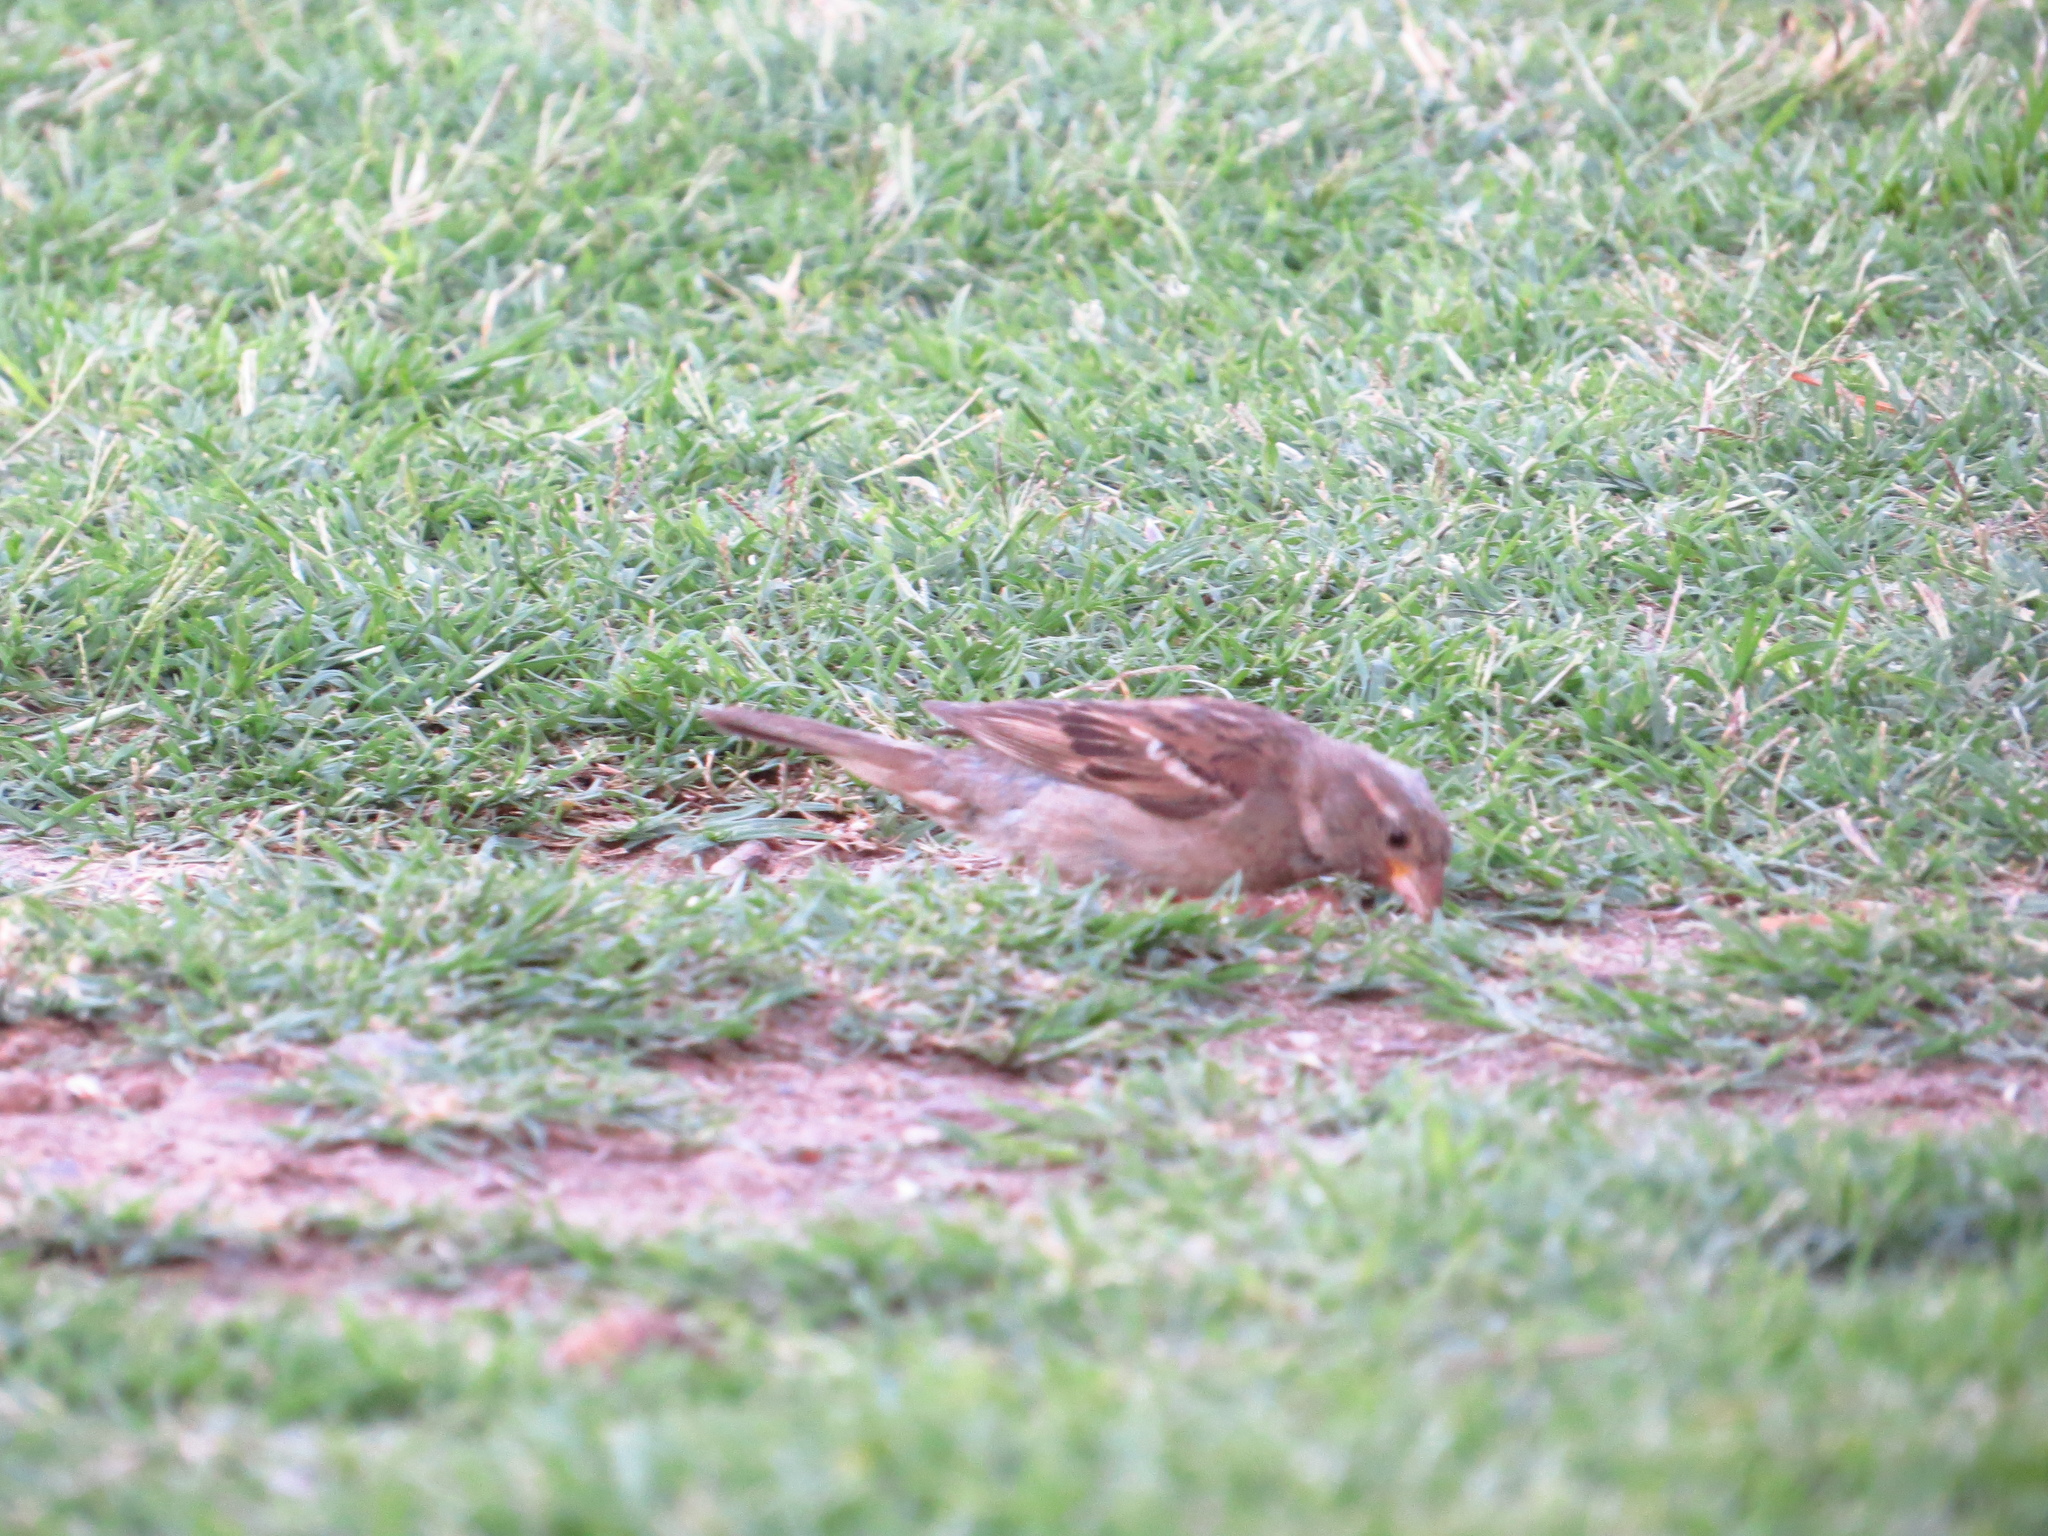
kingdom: Animalia
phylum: Chordata
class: Aves
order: Passeriformes
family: Passeridae
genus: Passer
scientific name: Passer domesticus
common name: House sparrow
